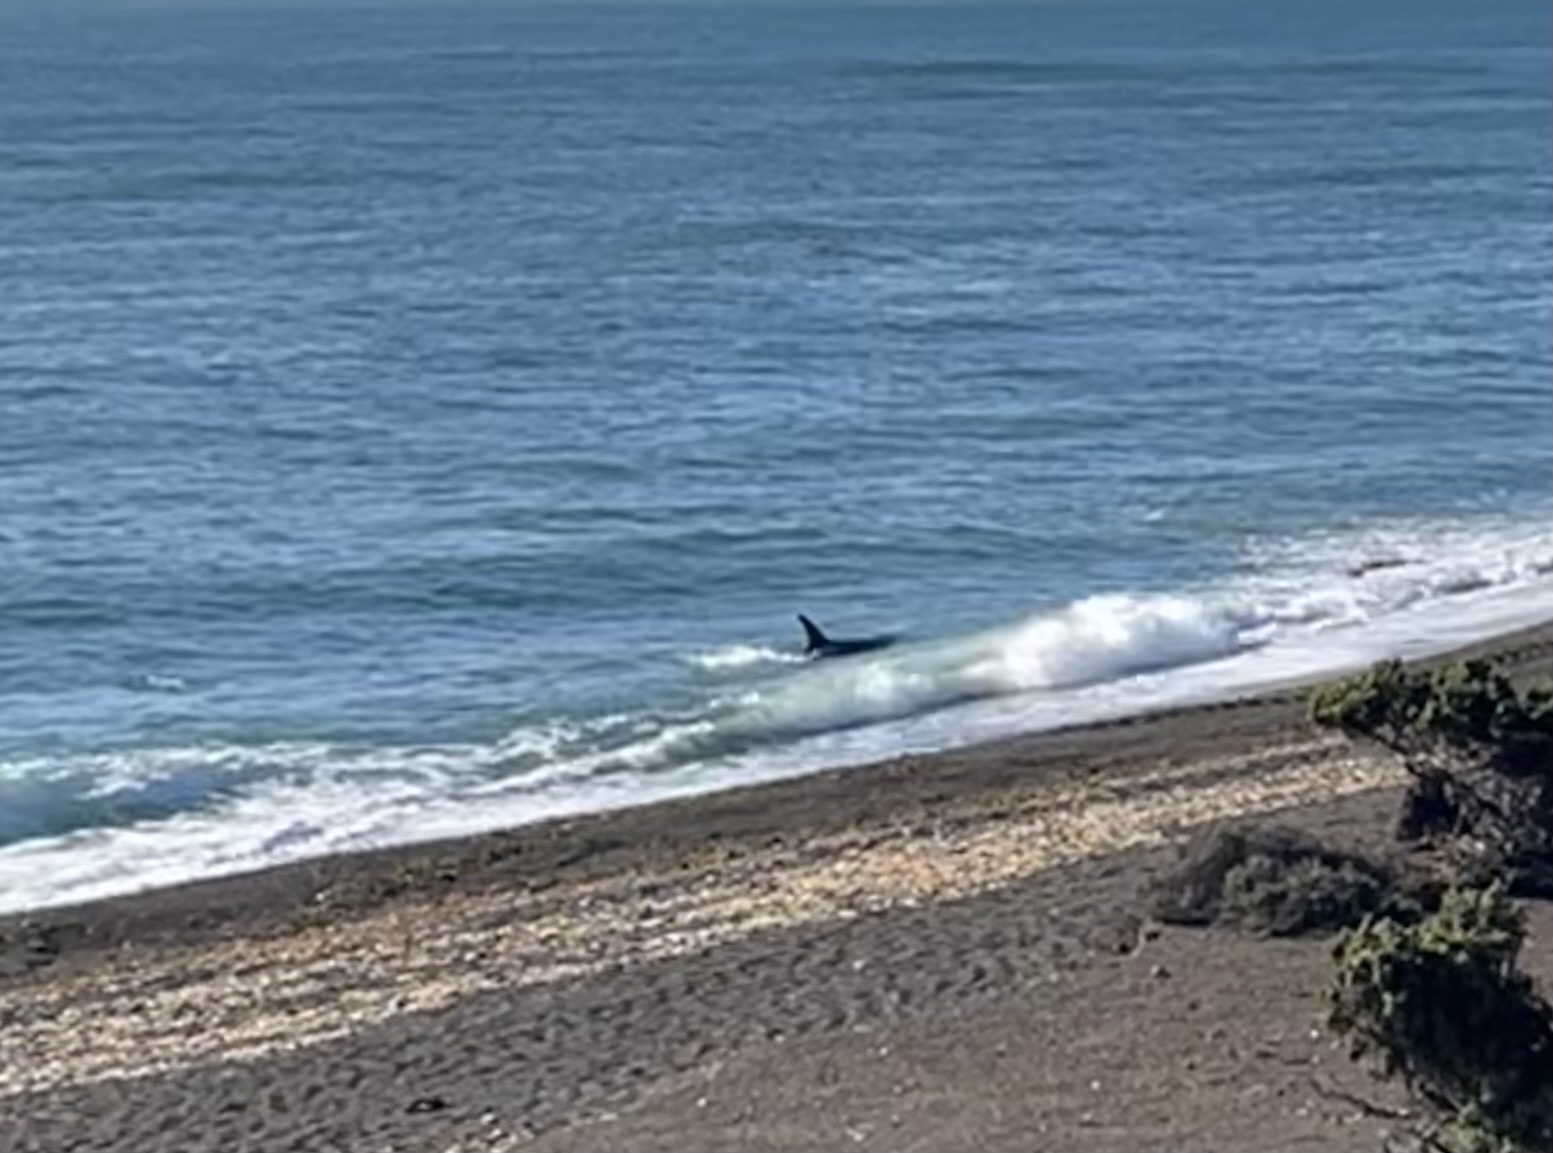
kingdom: Animalia
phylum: Chordata
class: Mammalia
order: Cetacea
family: Delphinidae
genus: Orcinus
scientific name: Orcinus orca
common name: Killer whale
